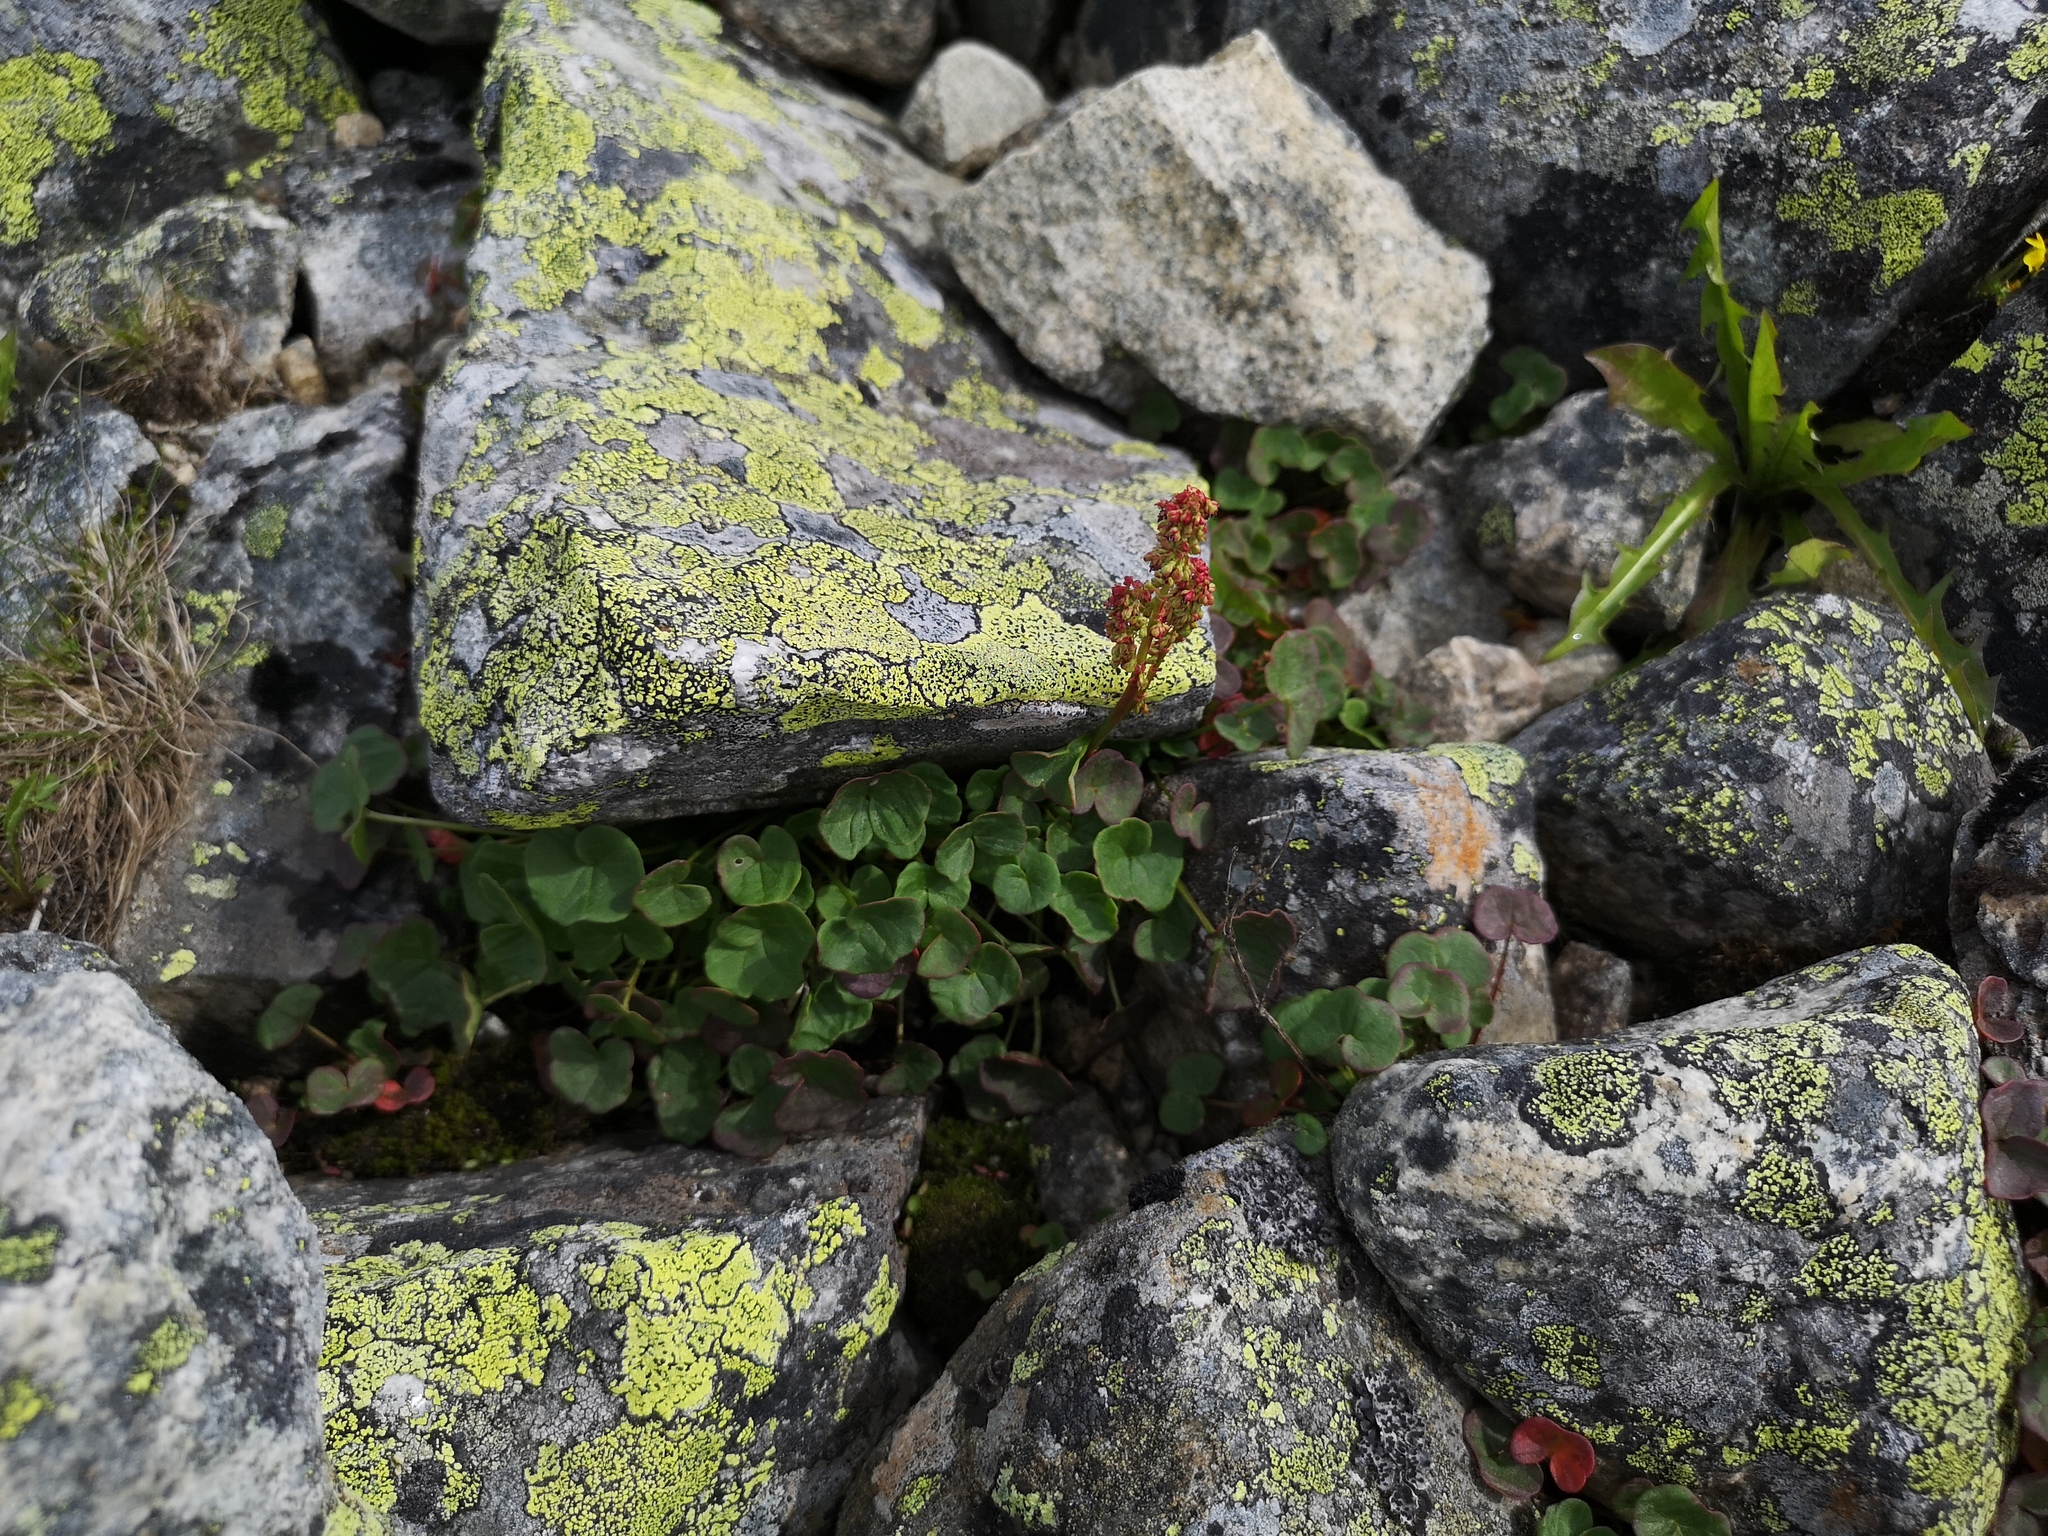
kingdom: Plantae
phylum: Tracheophyta
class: Magnoliopsida
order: Caryophyllales
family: Polygonaceae
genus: Oxyria
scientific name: Oxyria digyna
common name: Alpine mountain-sorrel
